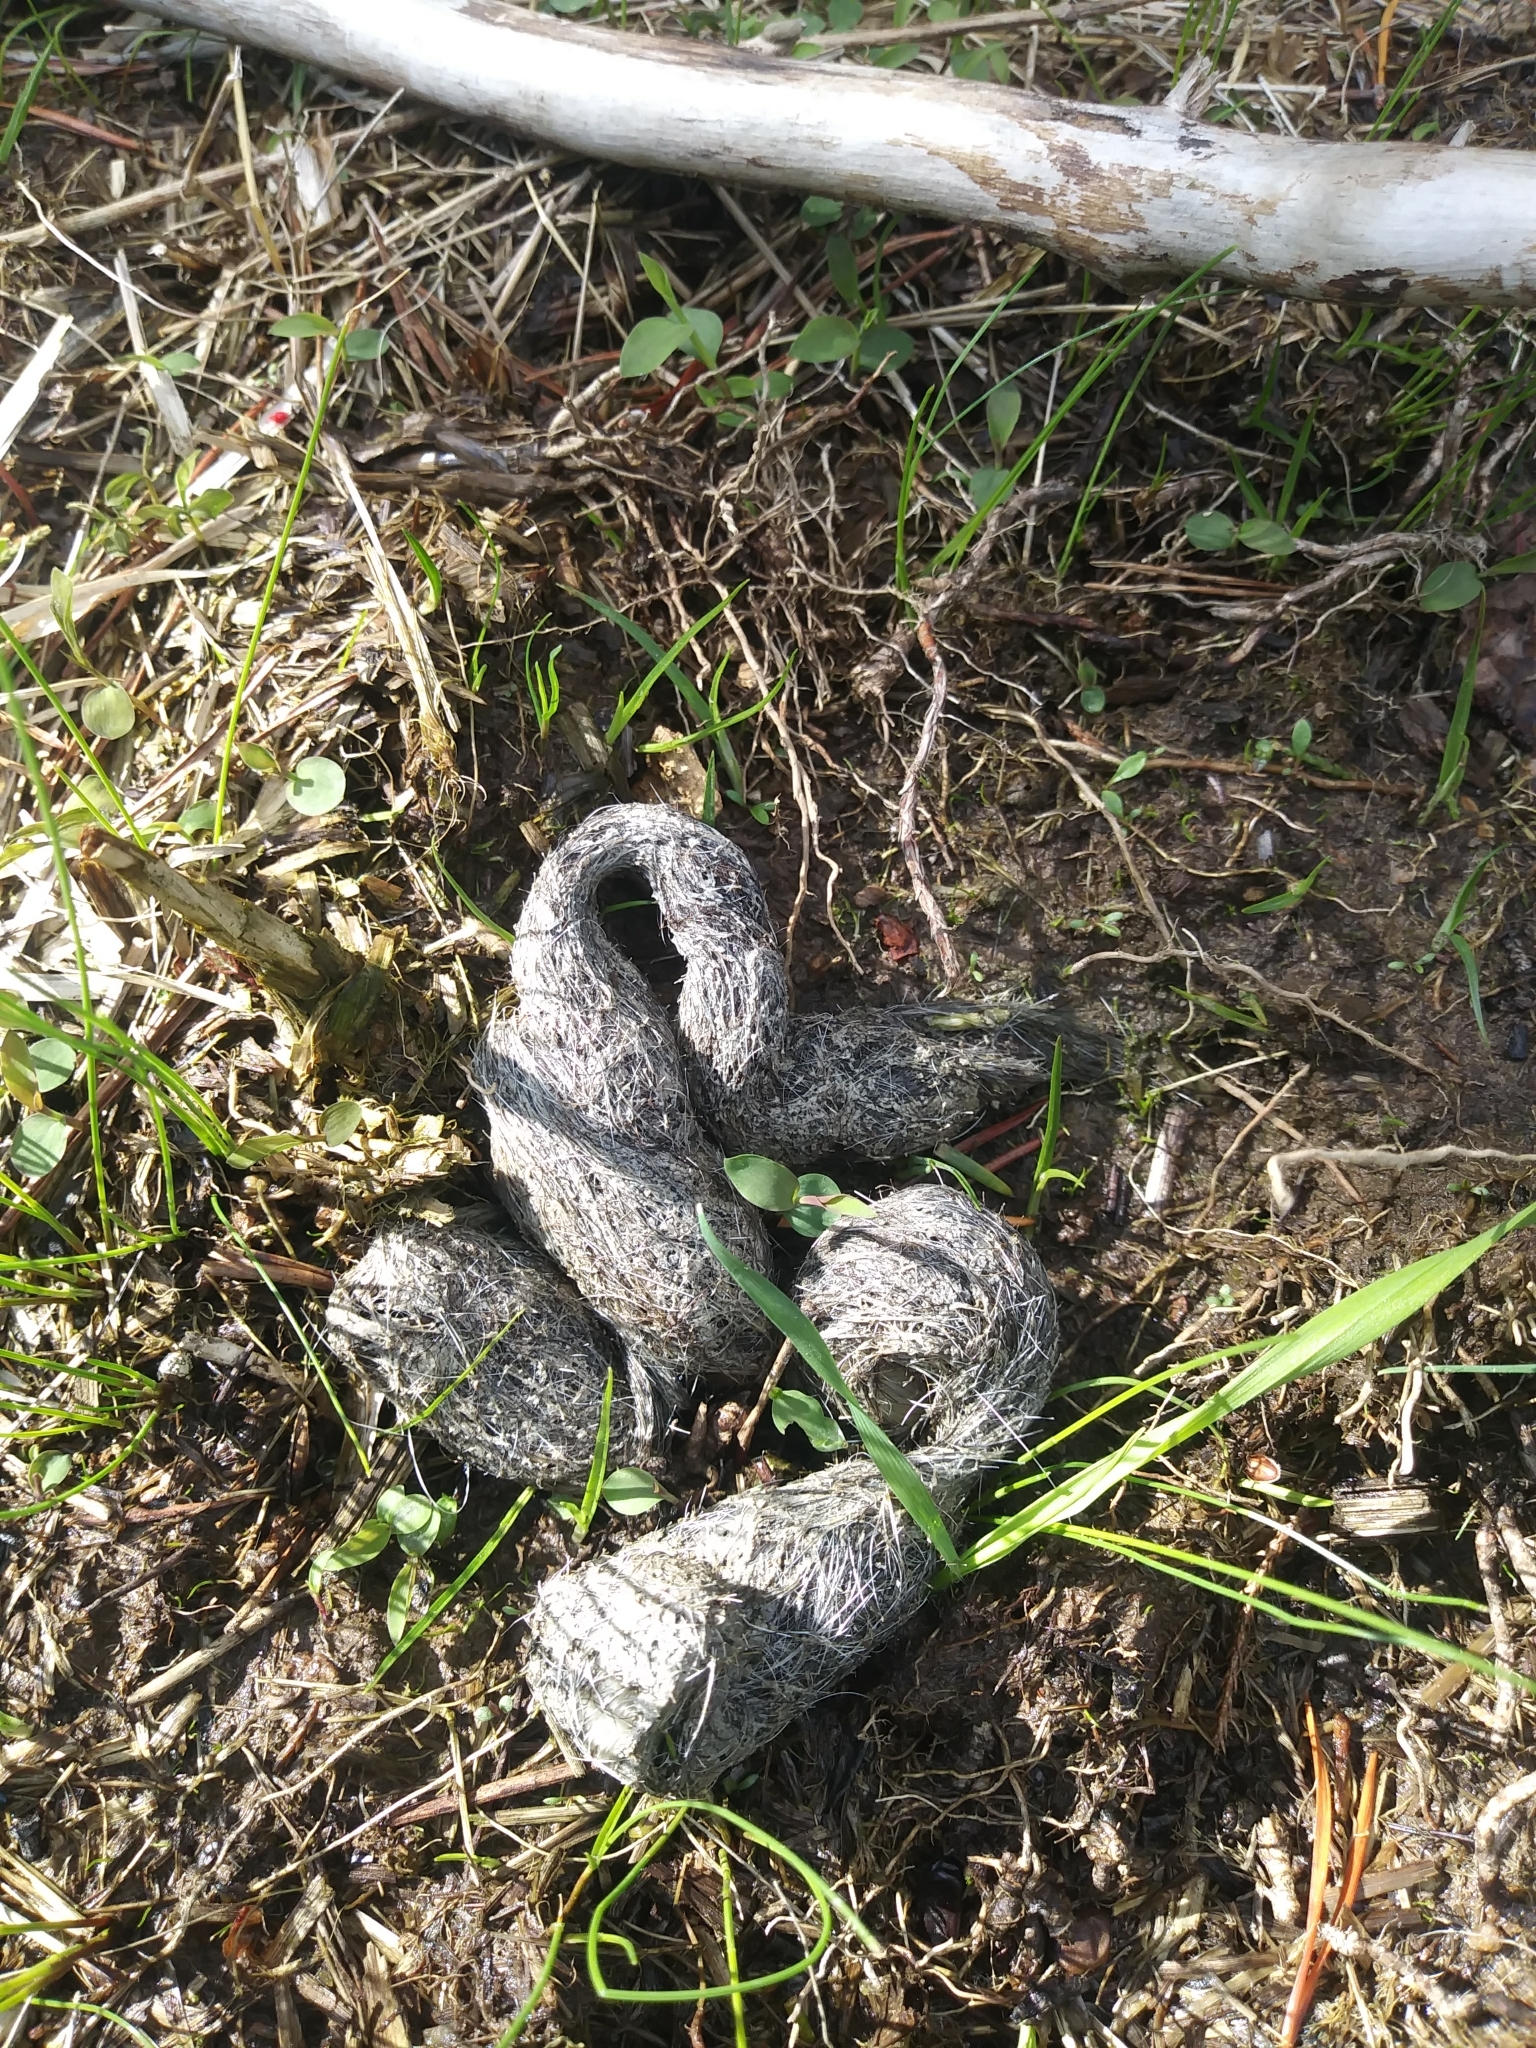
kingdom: Animalia
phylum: Chordata
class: Mammalia
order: Carnivora
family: Canidae
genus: Canis
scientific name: Canis latrans
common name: Coyote
